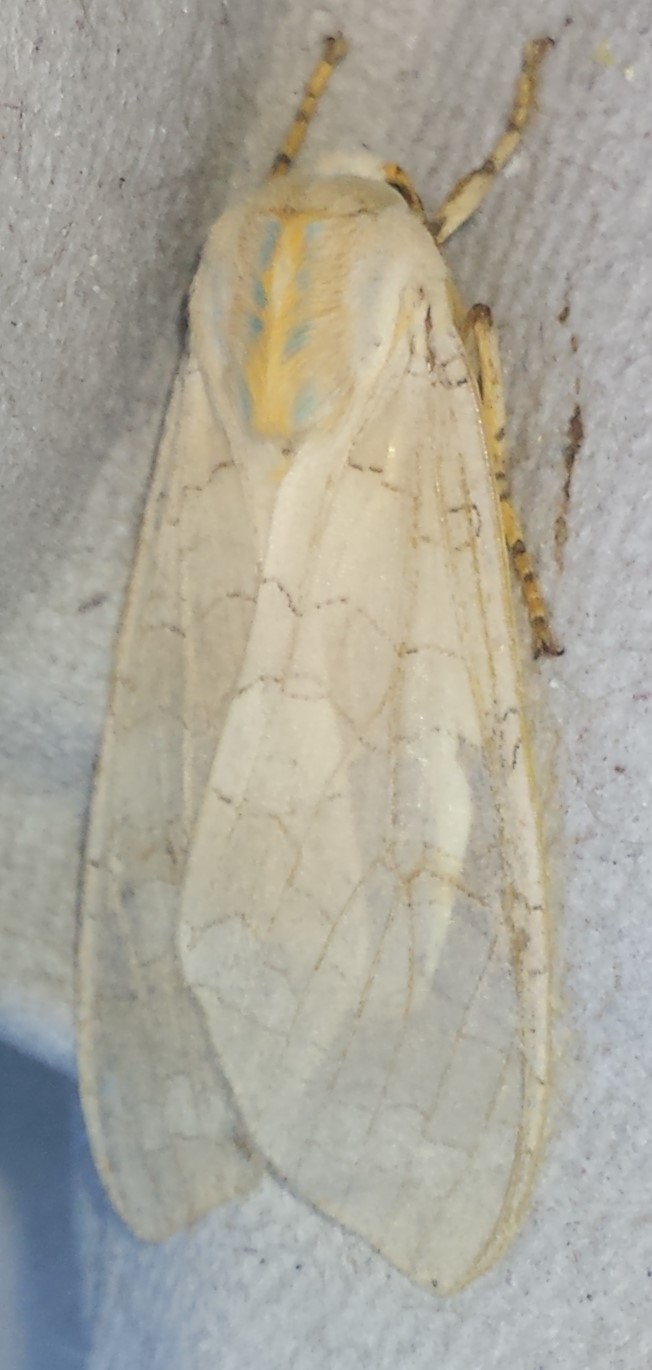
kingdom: Animalia
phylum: Arthropoda
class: Insecta
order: Lepidoptera
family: Erebidae
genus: Halysidota
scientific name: Halysidota tessellaris
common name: Banded tussock moth
